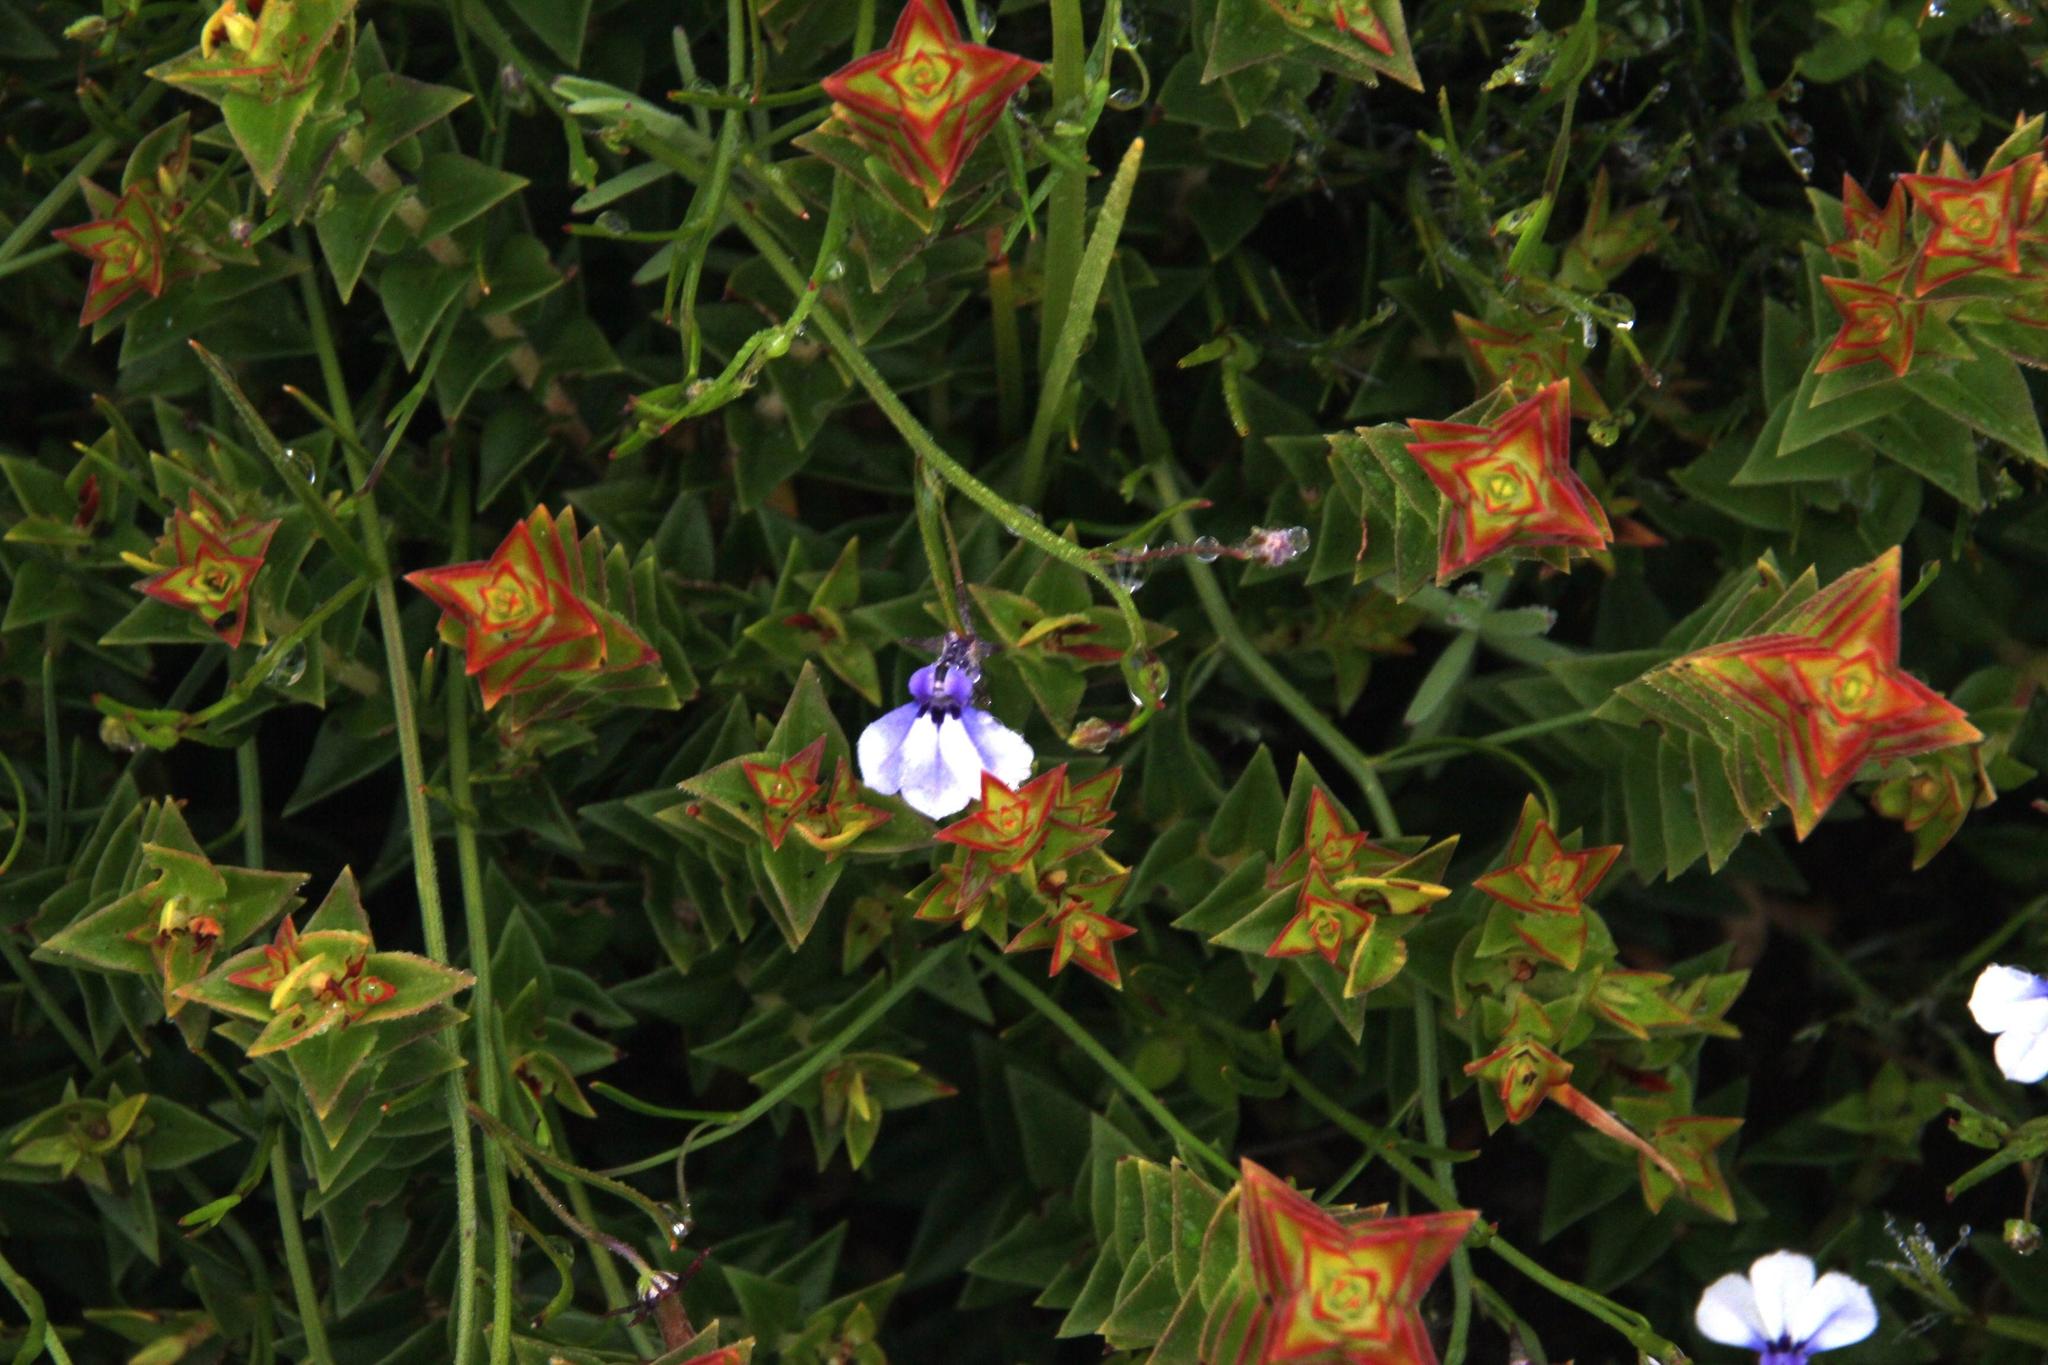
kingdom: Plantae
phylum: Tracheophyta
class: Magnoliopsida
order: Myrtales
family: Penaeaceae
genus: Penaea
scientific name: Penaea mucronata
